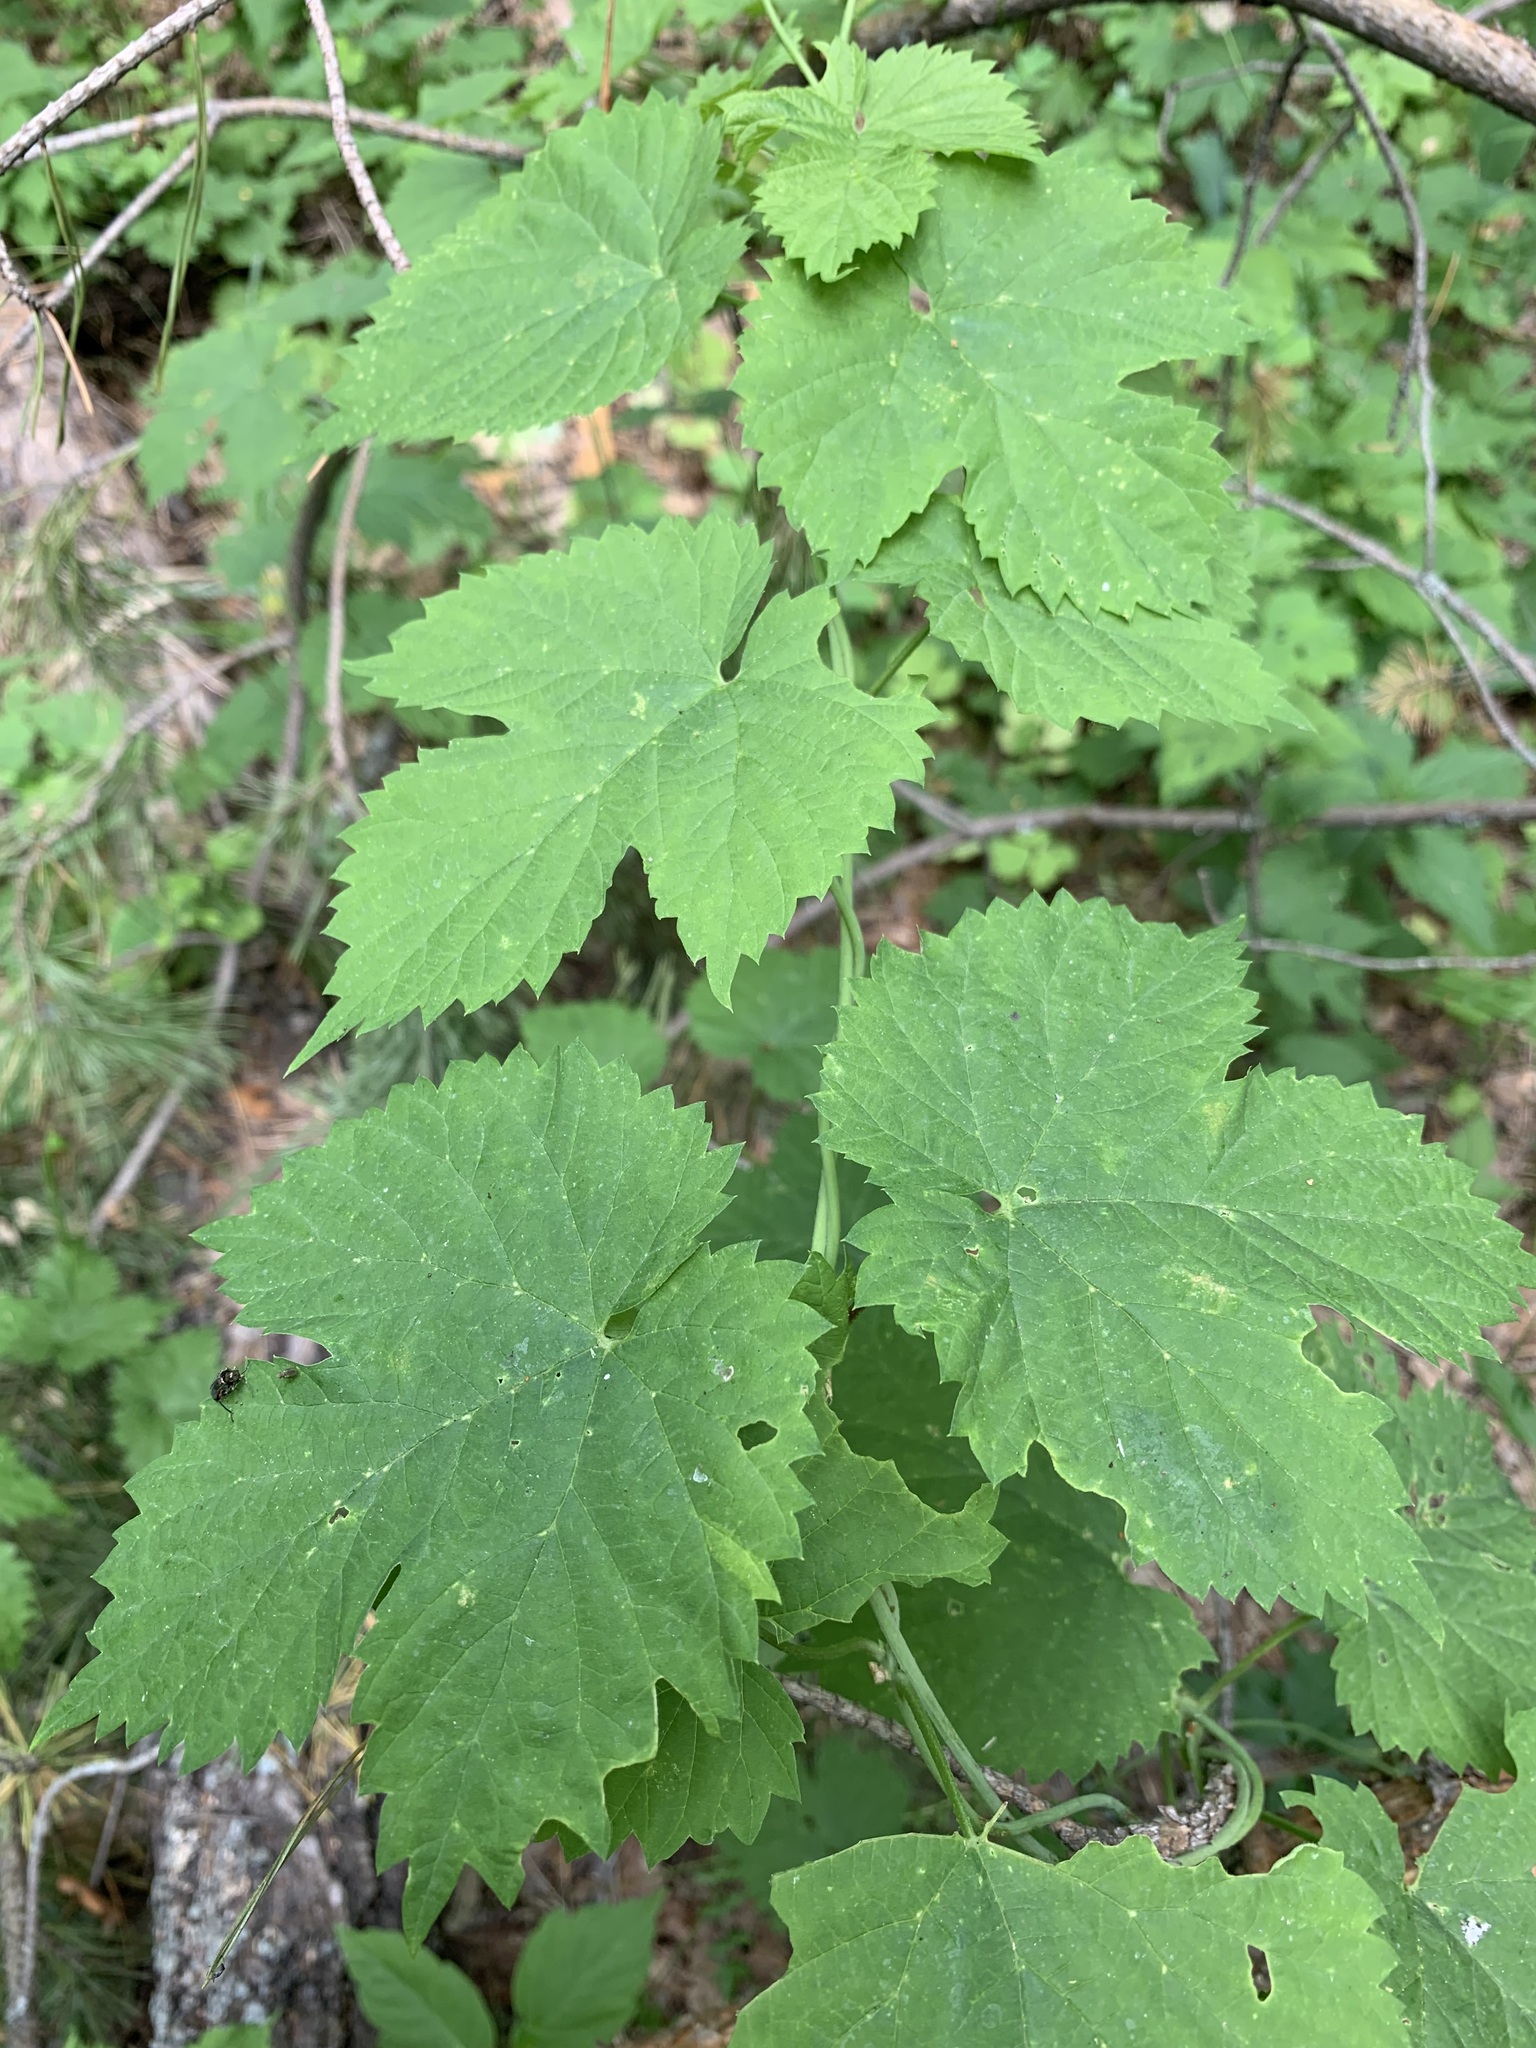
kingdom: Plantae
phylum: Tracheophyta
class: Magnoliopsida
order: Rosales
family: Cannabaceae
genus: Humulus
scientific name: Humulus lupulus
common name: Hop
